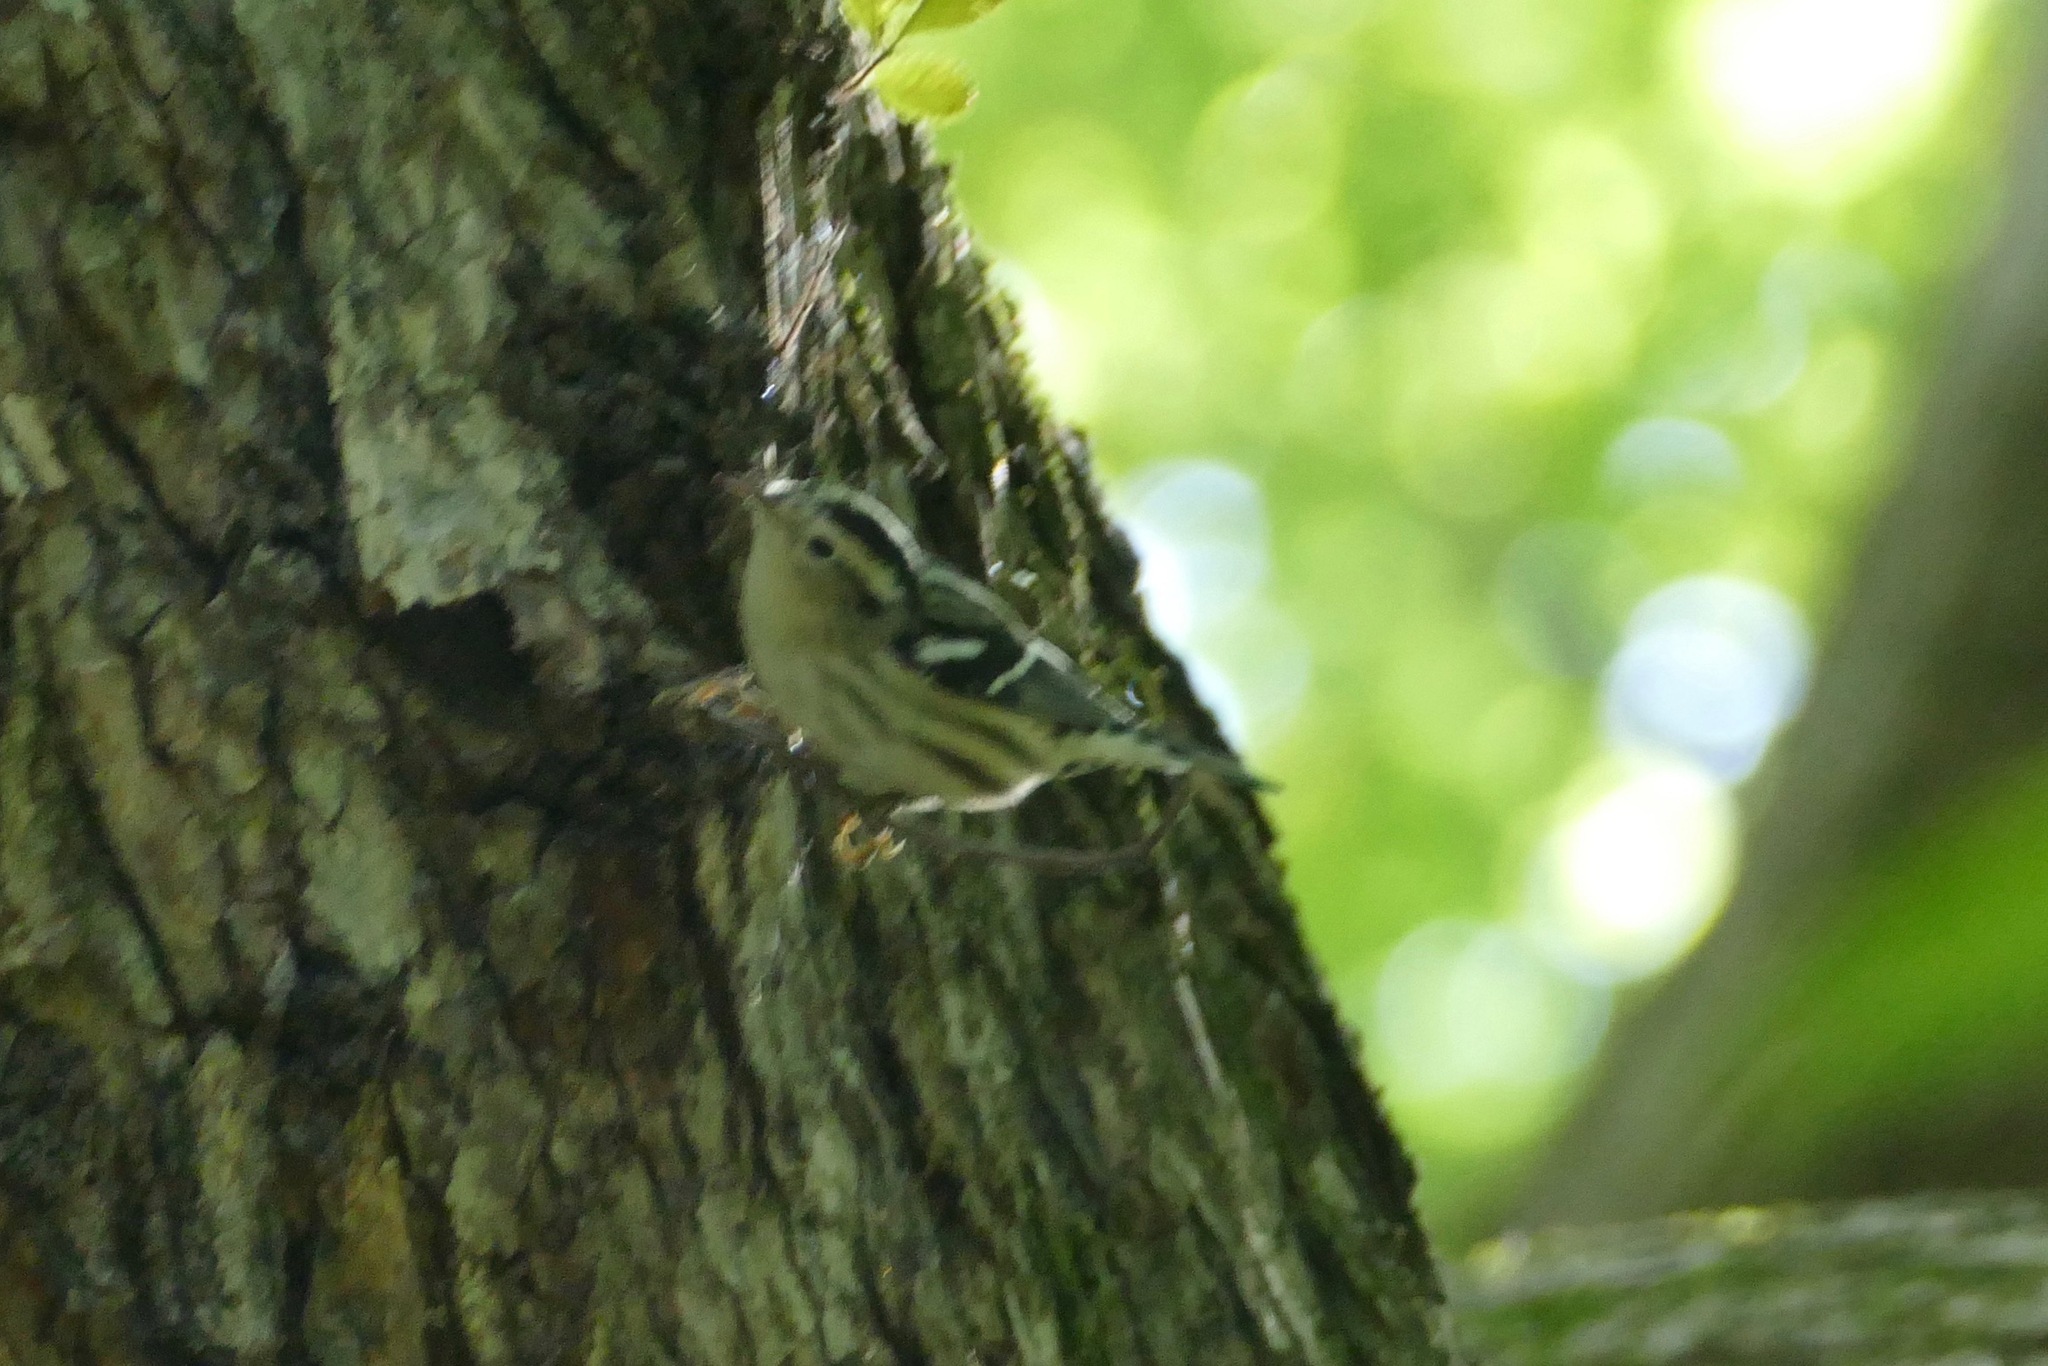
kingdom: Animalia
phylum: Chordata
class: Aves
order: Passeriformes
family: Parulidae
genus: Mniotilta
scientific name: Mniotilta varia
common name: Black-and-white warbler
